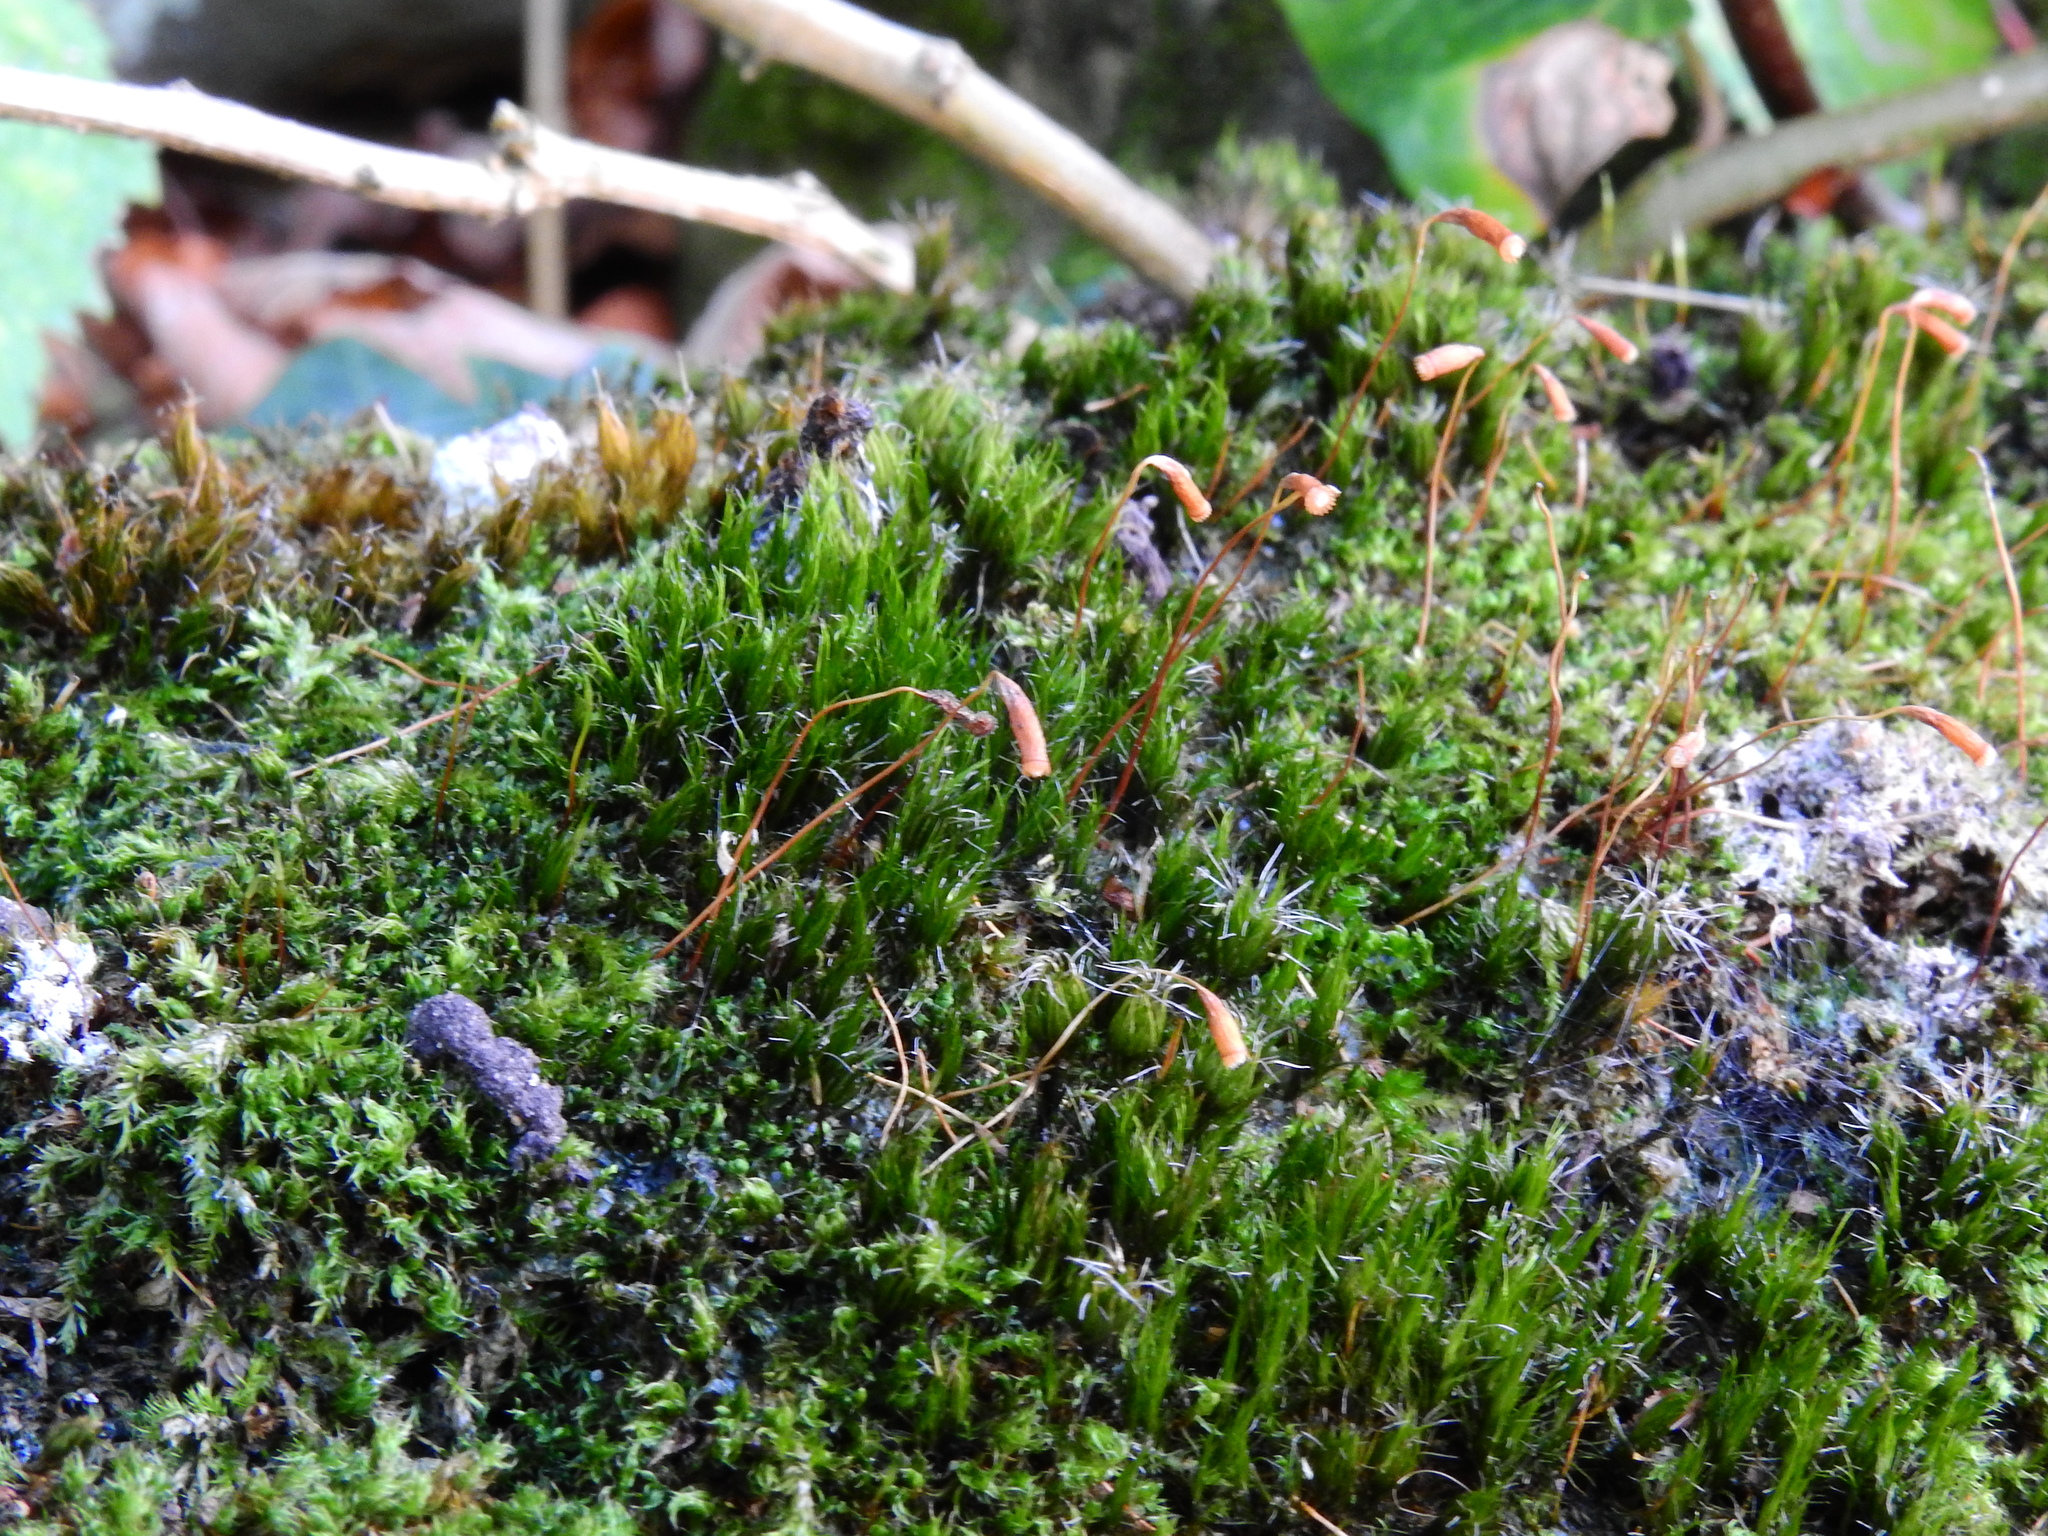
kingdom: Plantae
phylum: Bryophyta
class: Bryopsida
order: Dicranales
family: Leucobryaceae
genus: Campylopus
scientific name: Campylopus introflexus
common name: Heath star moss
